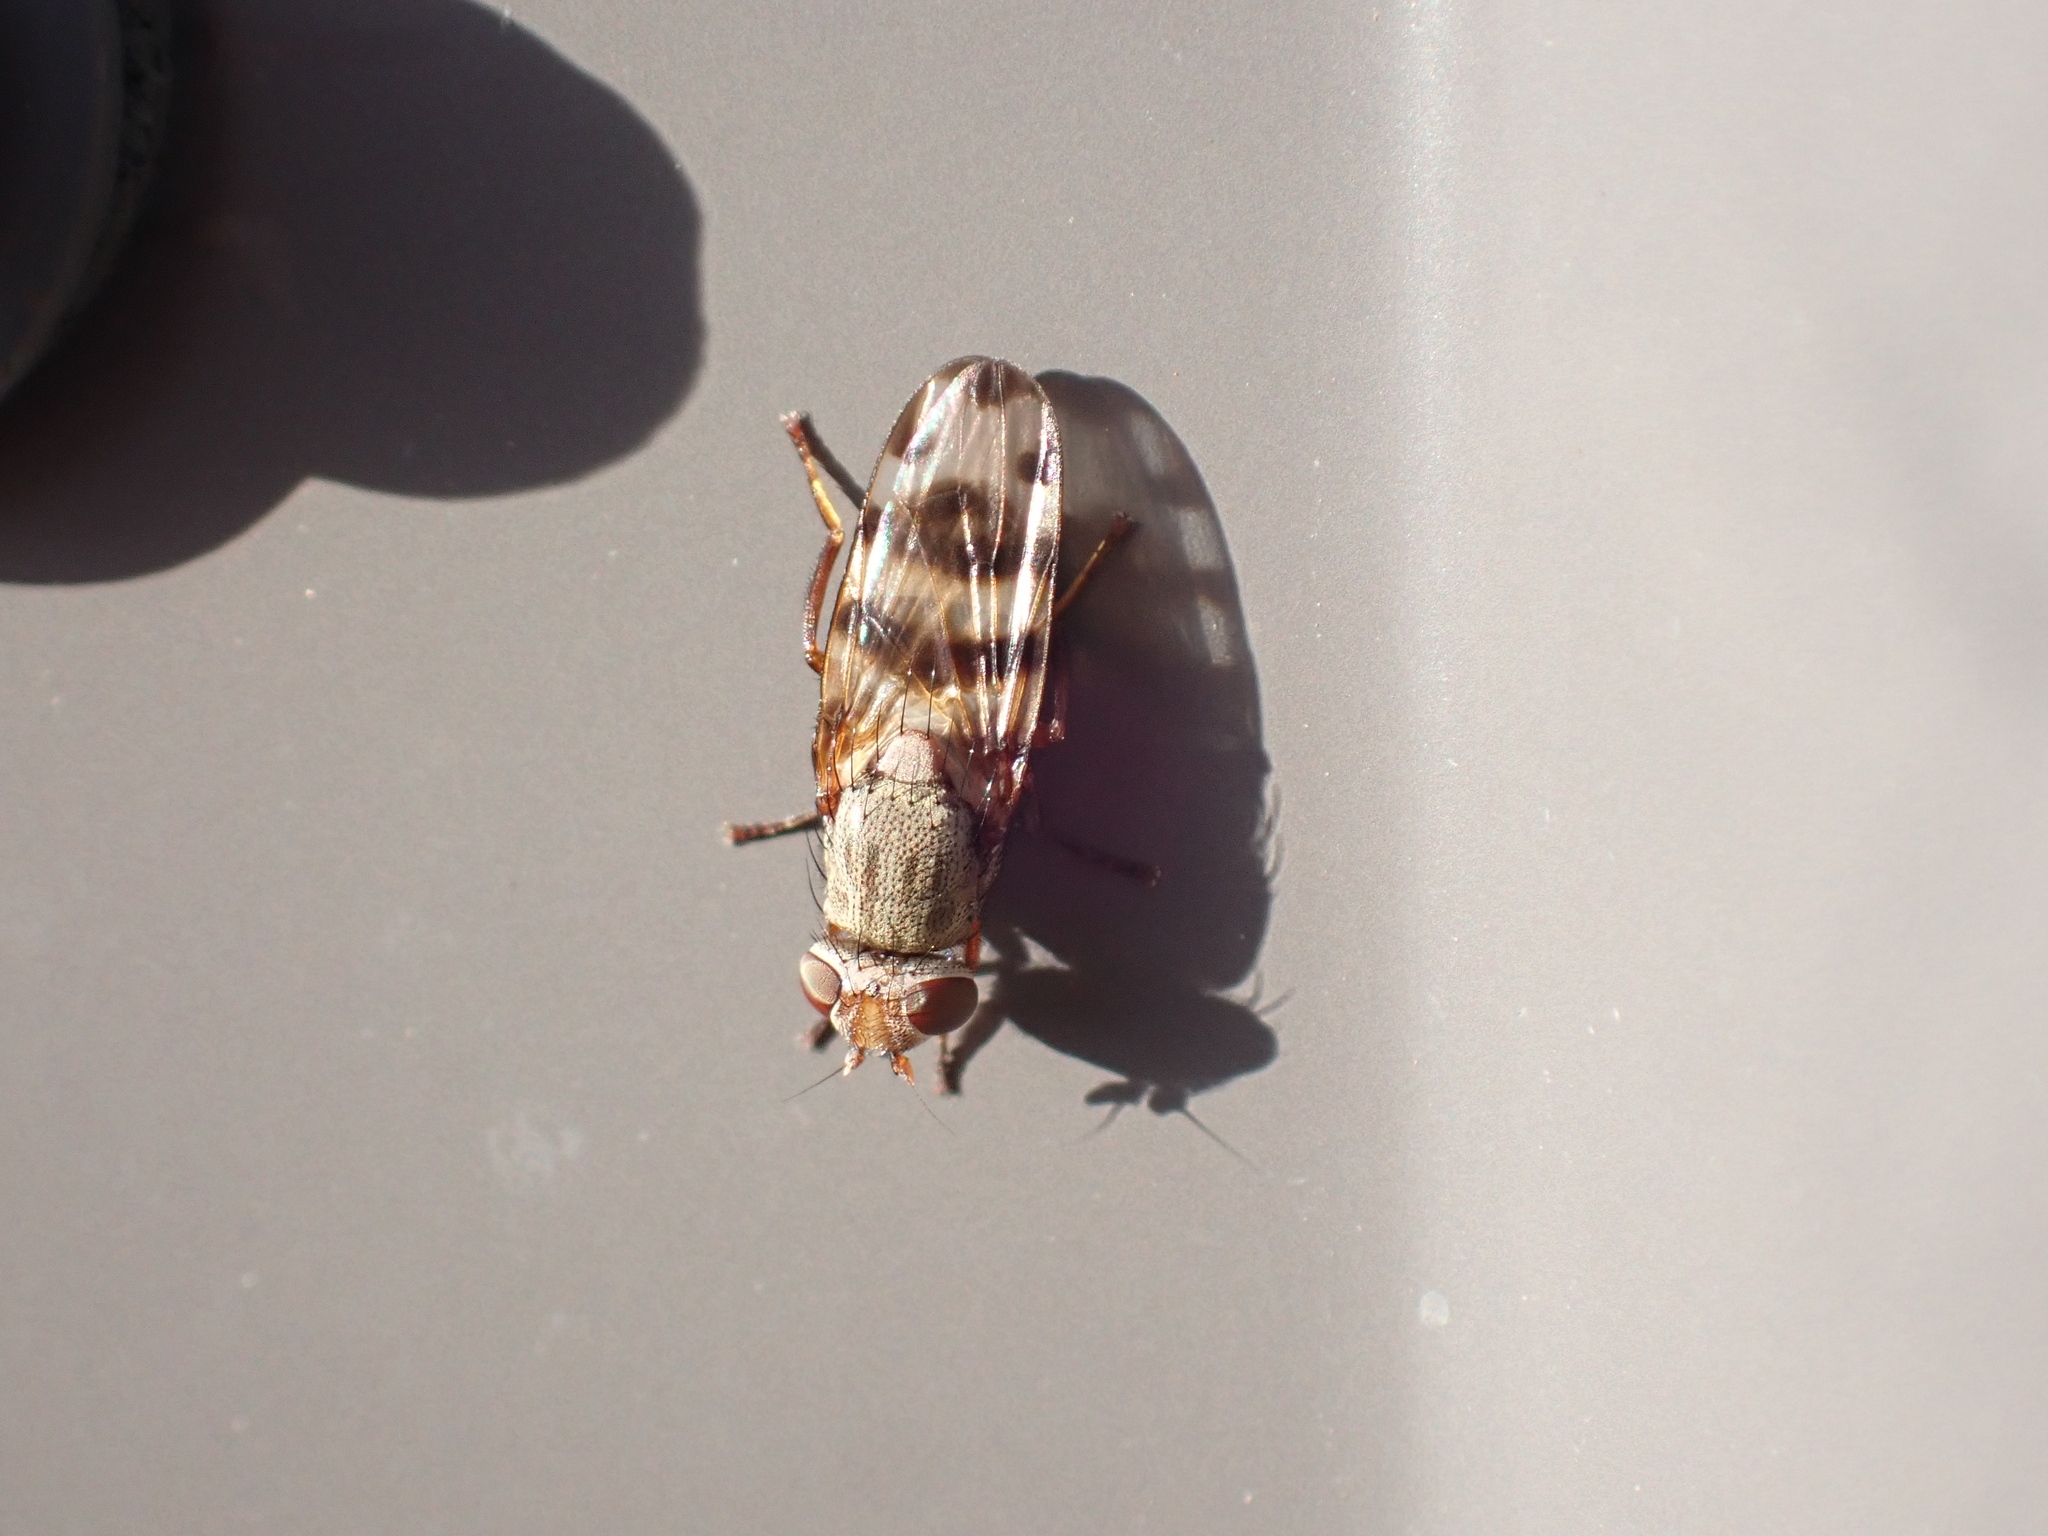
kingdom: Animalia
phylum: Arthropoda
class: Insecta
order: Diptera
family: Ulidiidae
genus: Ceroxys
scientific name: Ceroxys latiusculus
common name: Picture-winged fly
